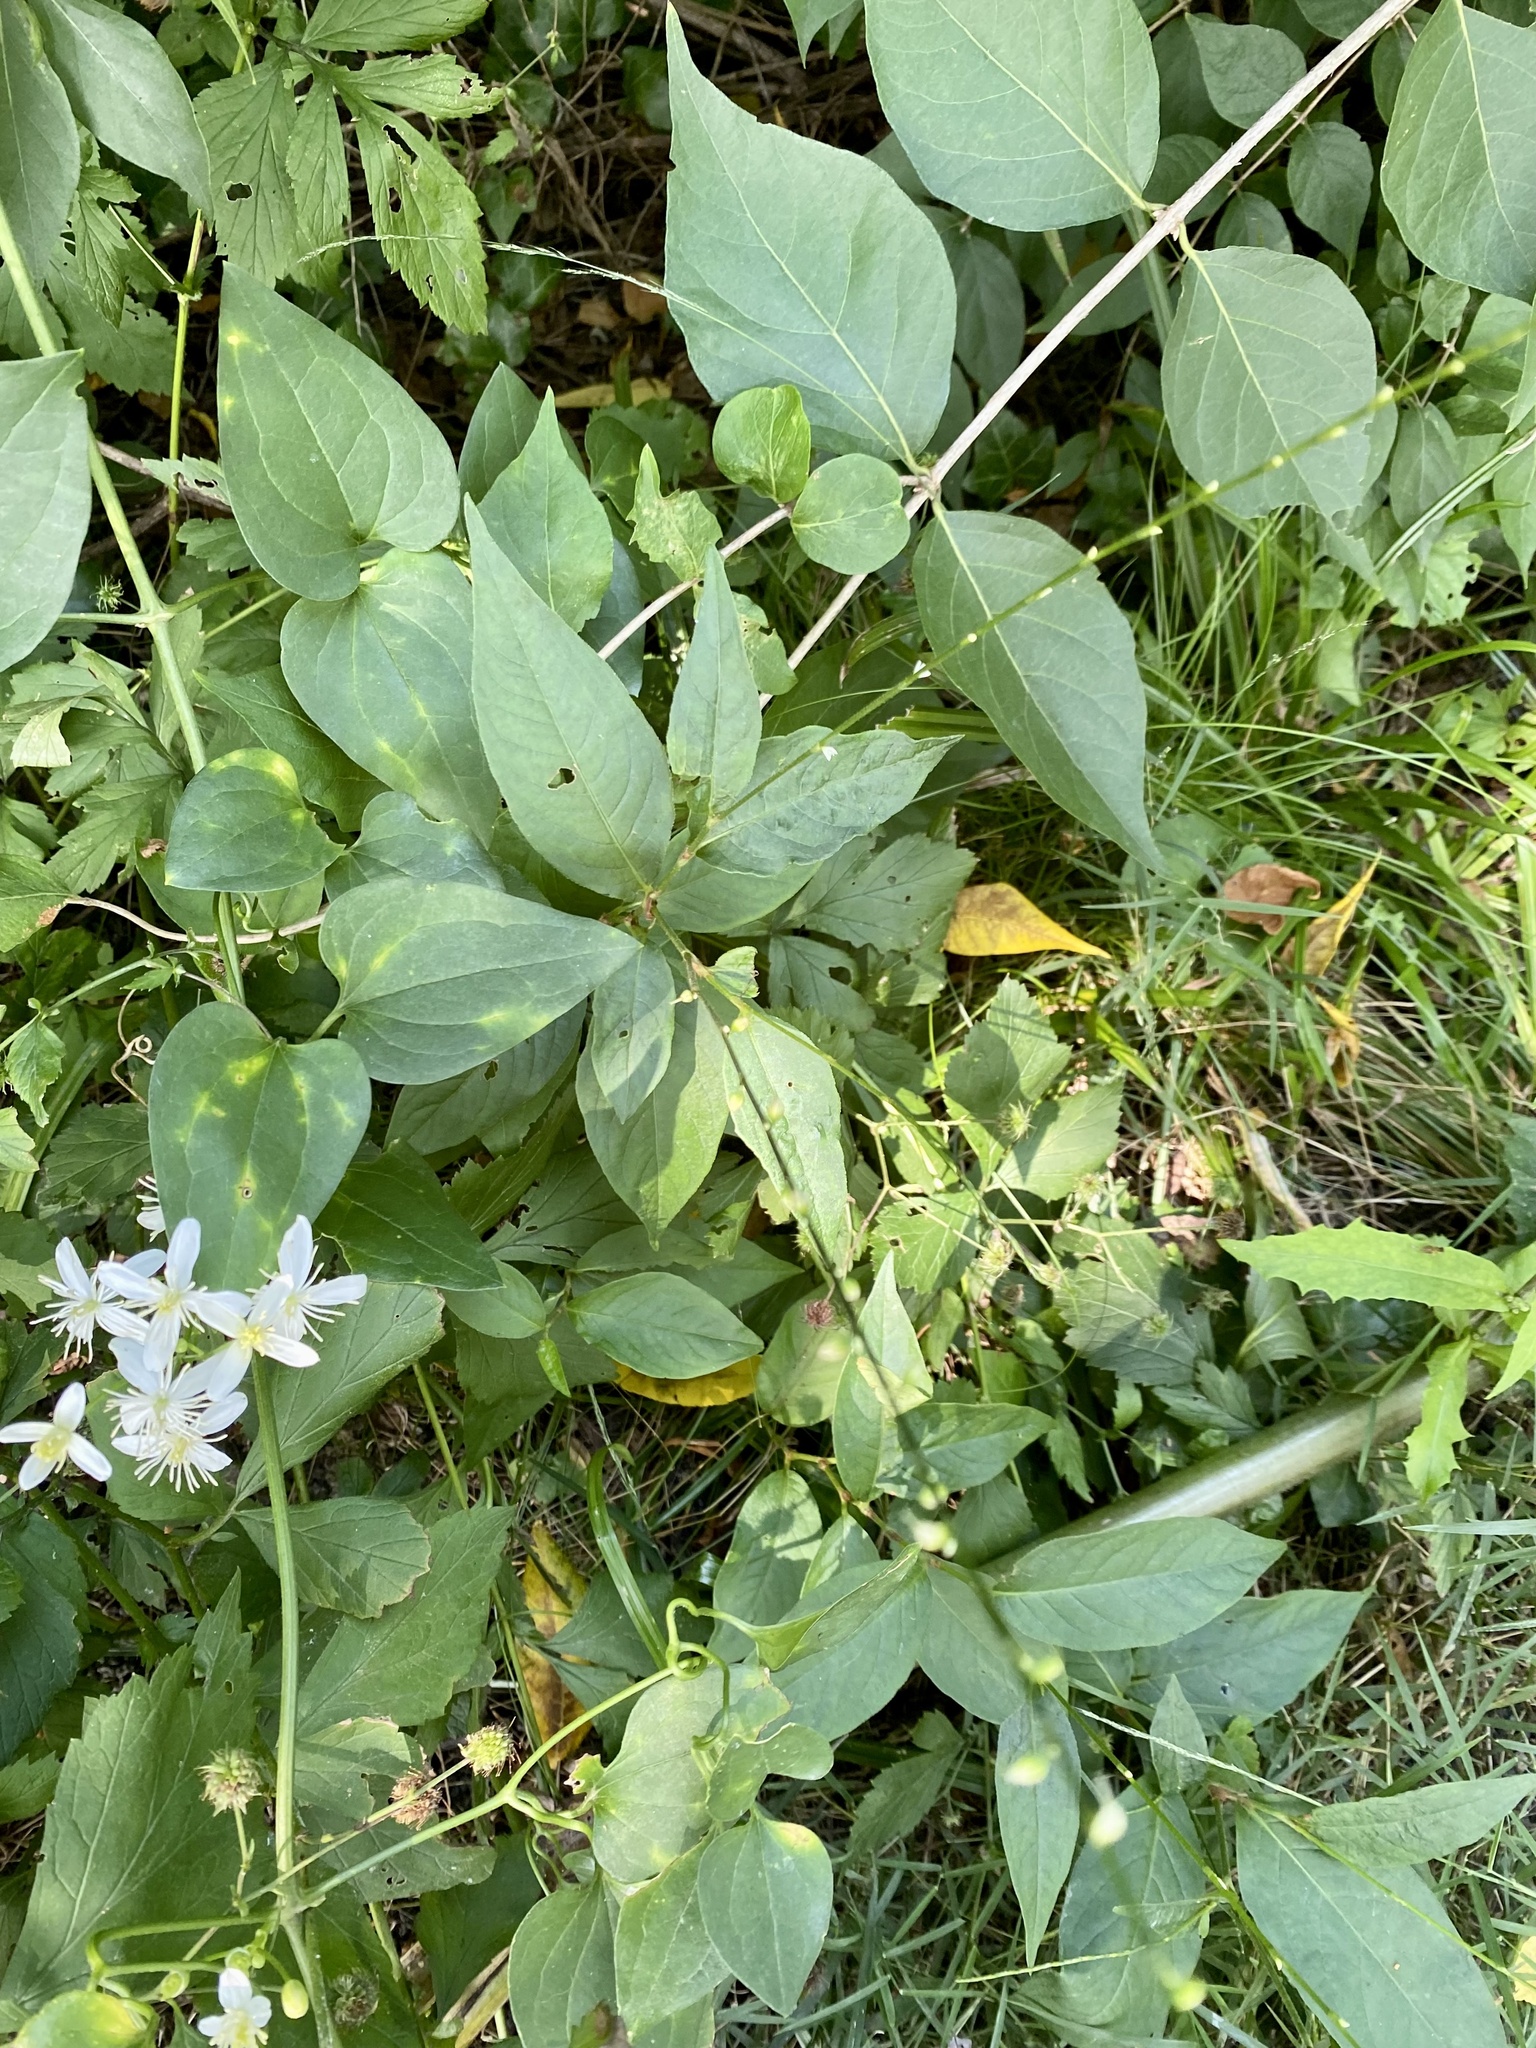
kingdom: Plantae
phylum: Tracheophyta
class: Magnoliopsida
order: Caryophyllales
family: Polygonaceae
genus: Persicaria
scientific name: Persicaria virginiana
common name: Jumpseed
